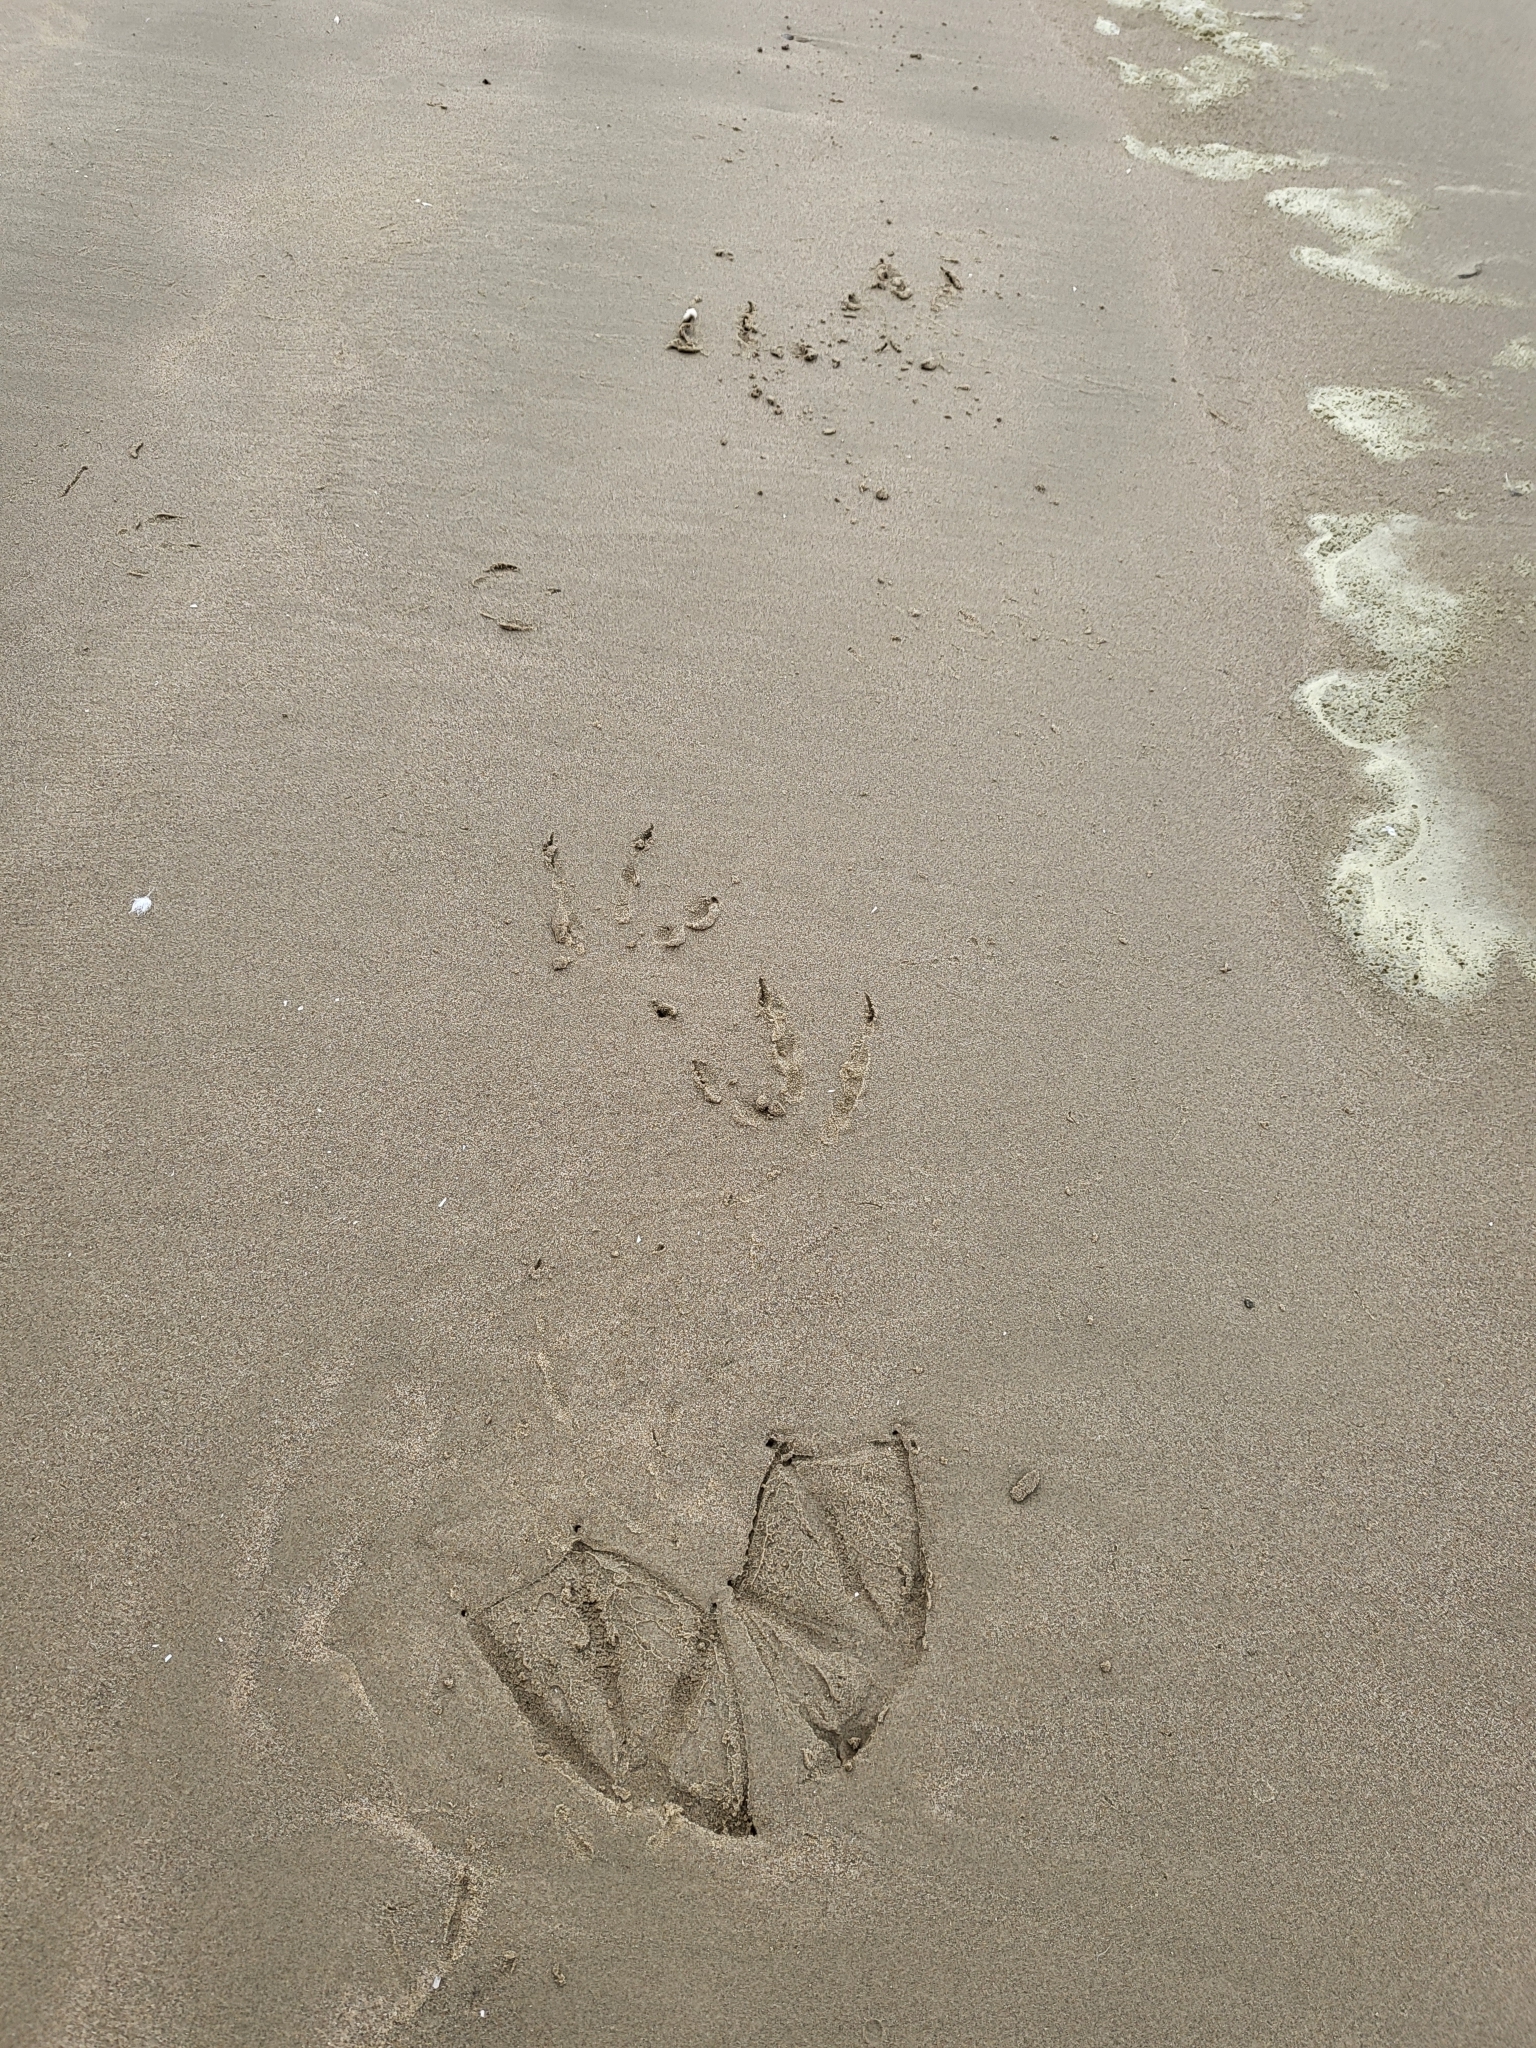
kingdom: Animalia
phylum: Chordata
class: Aves
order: Pelecaniformes
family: Pelecanidae
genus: Pelecanus
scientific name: Pelecanus occidentalis
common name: Brown pelican
